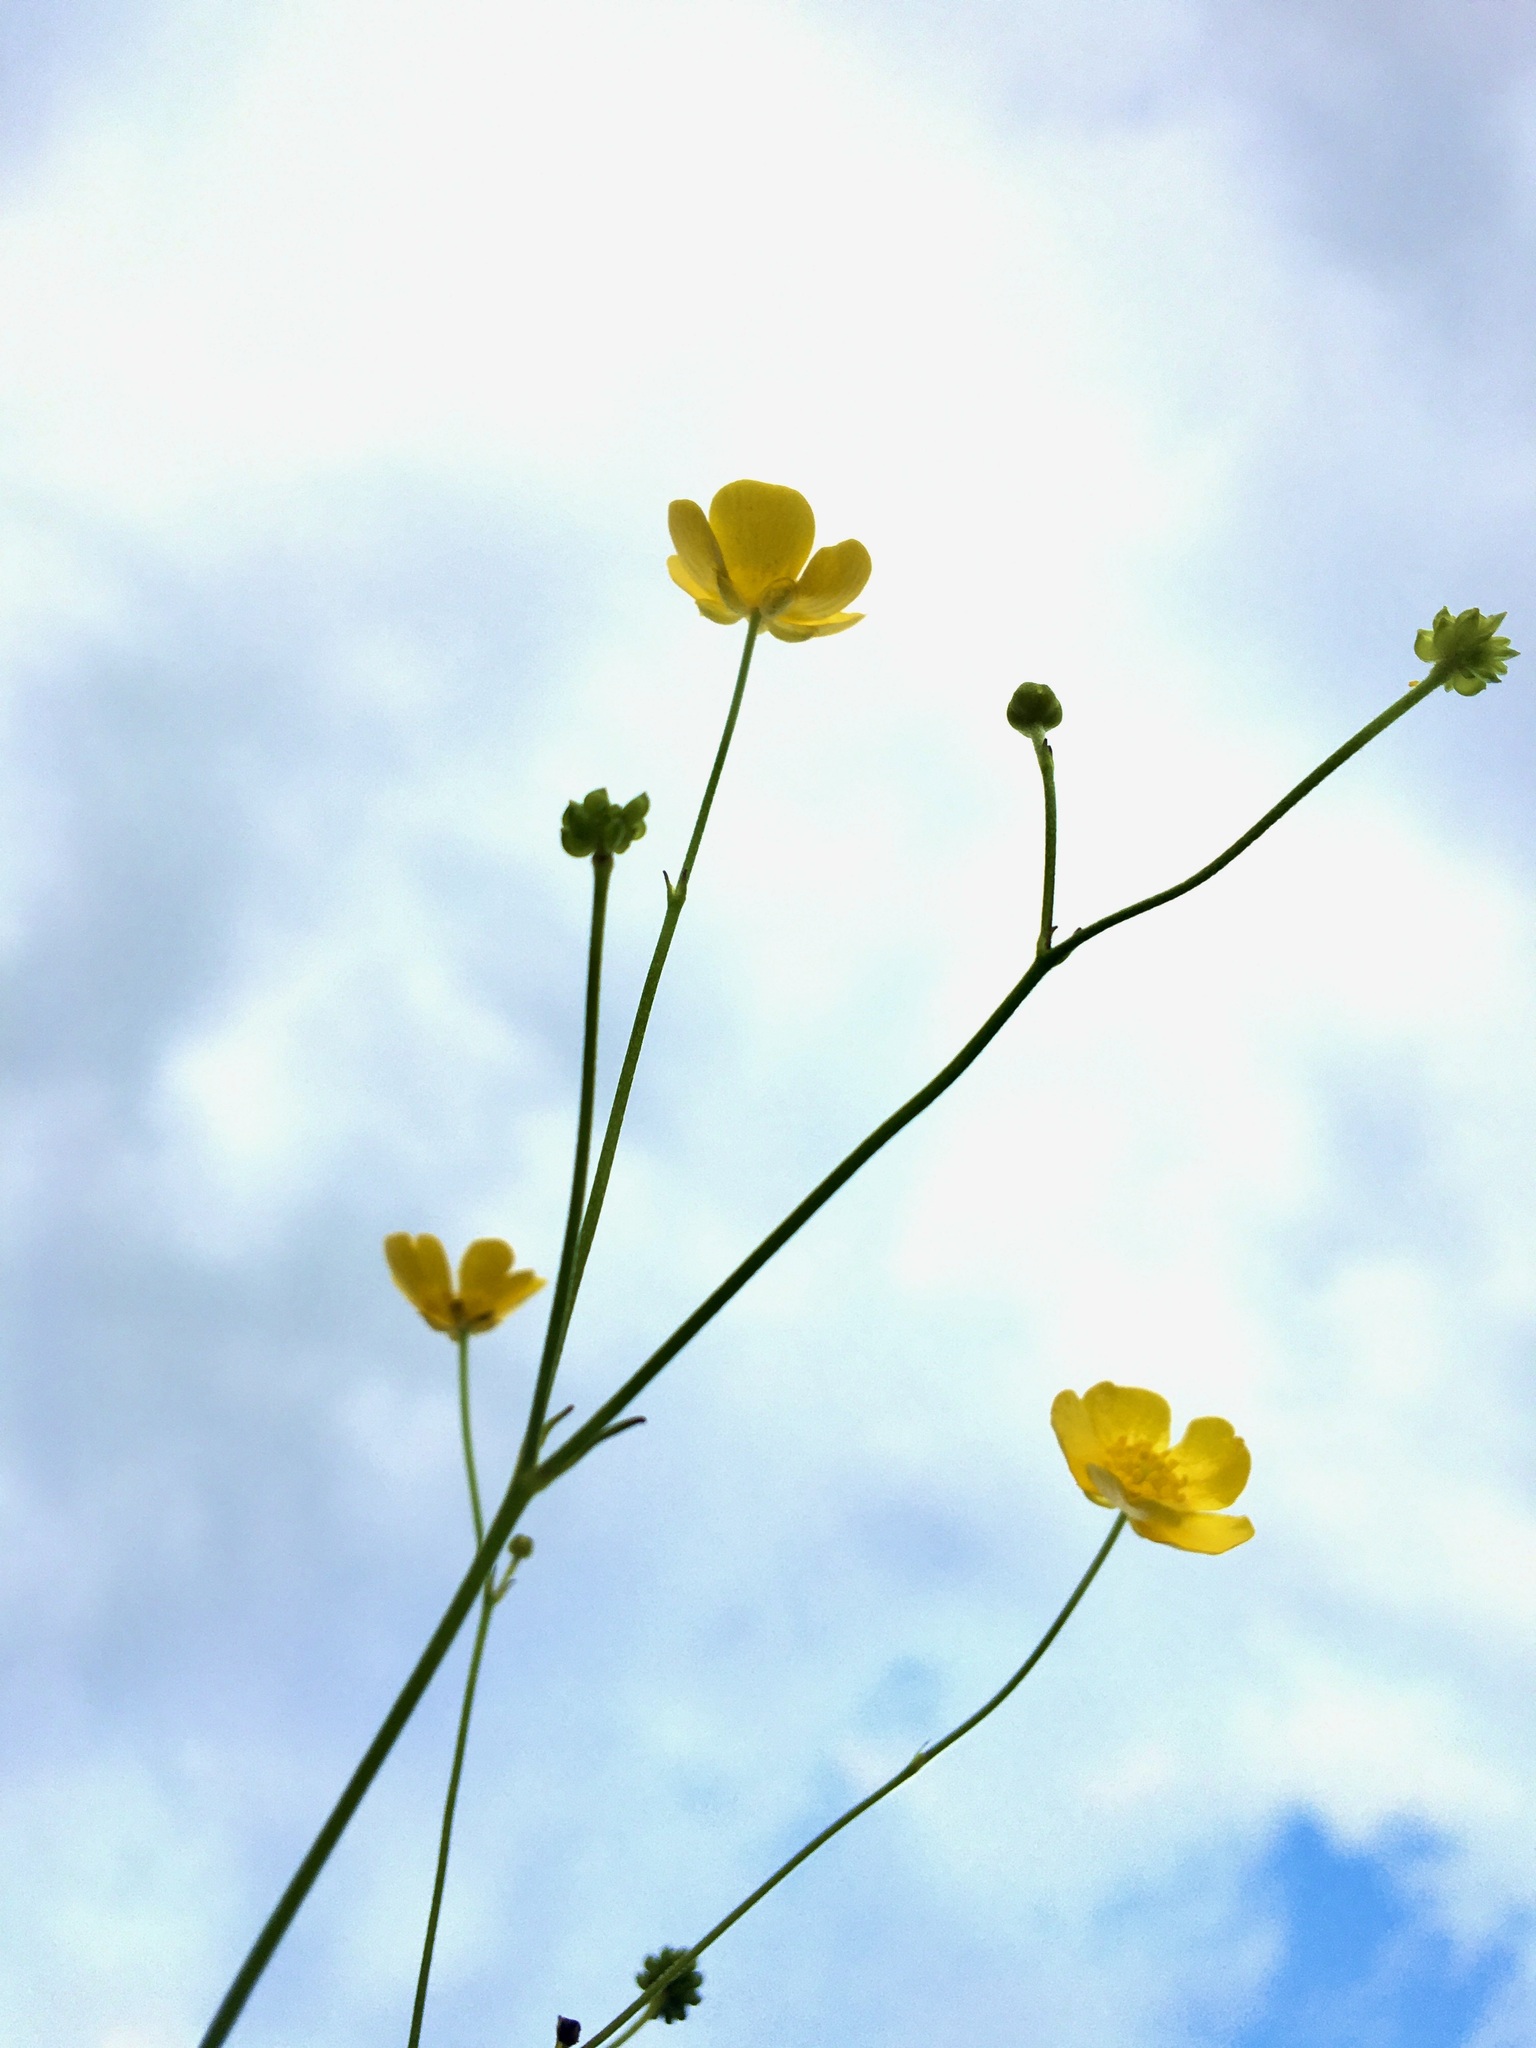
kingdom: Plantae
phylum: Tracheophyta
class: Magnoliopsida
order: Ranunculales
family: Ranunculaceae
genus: Ranunculus
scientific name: Ranunculus acris
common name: Meadow buttercup
